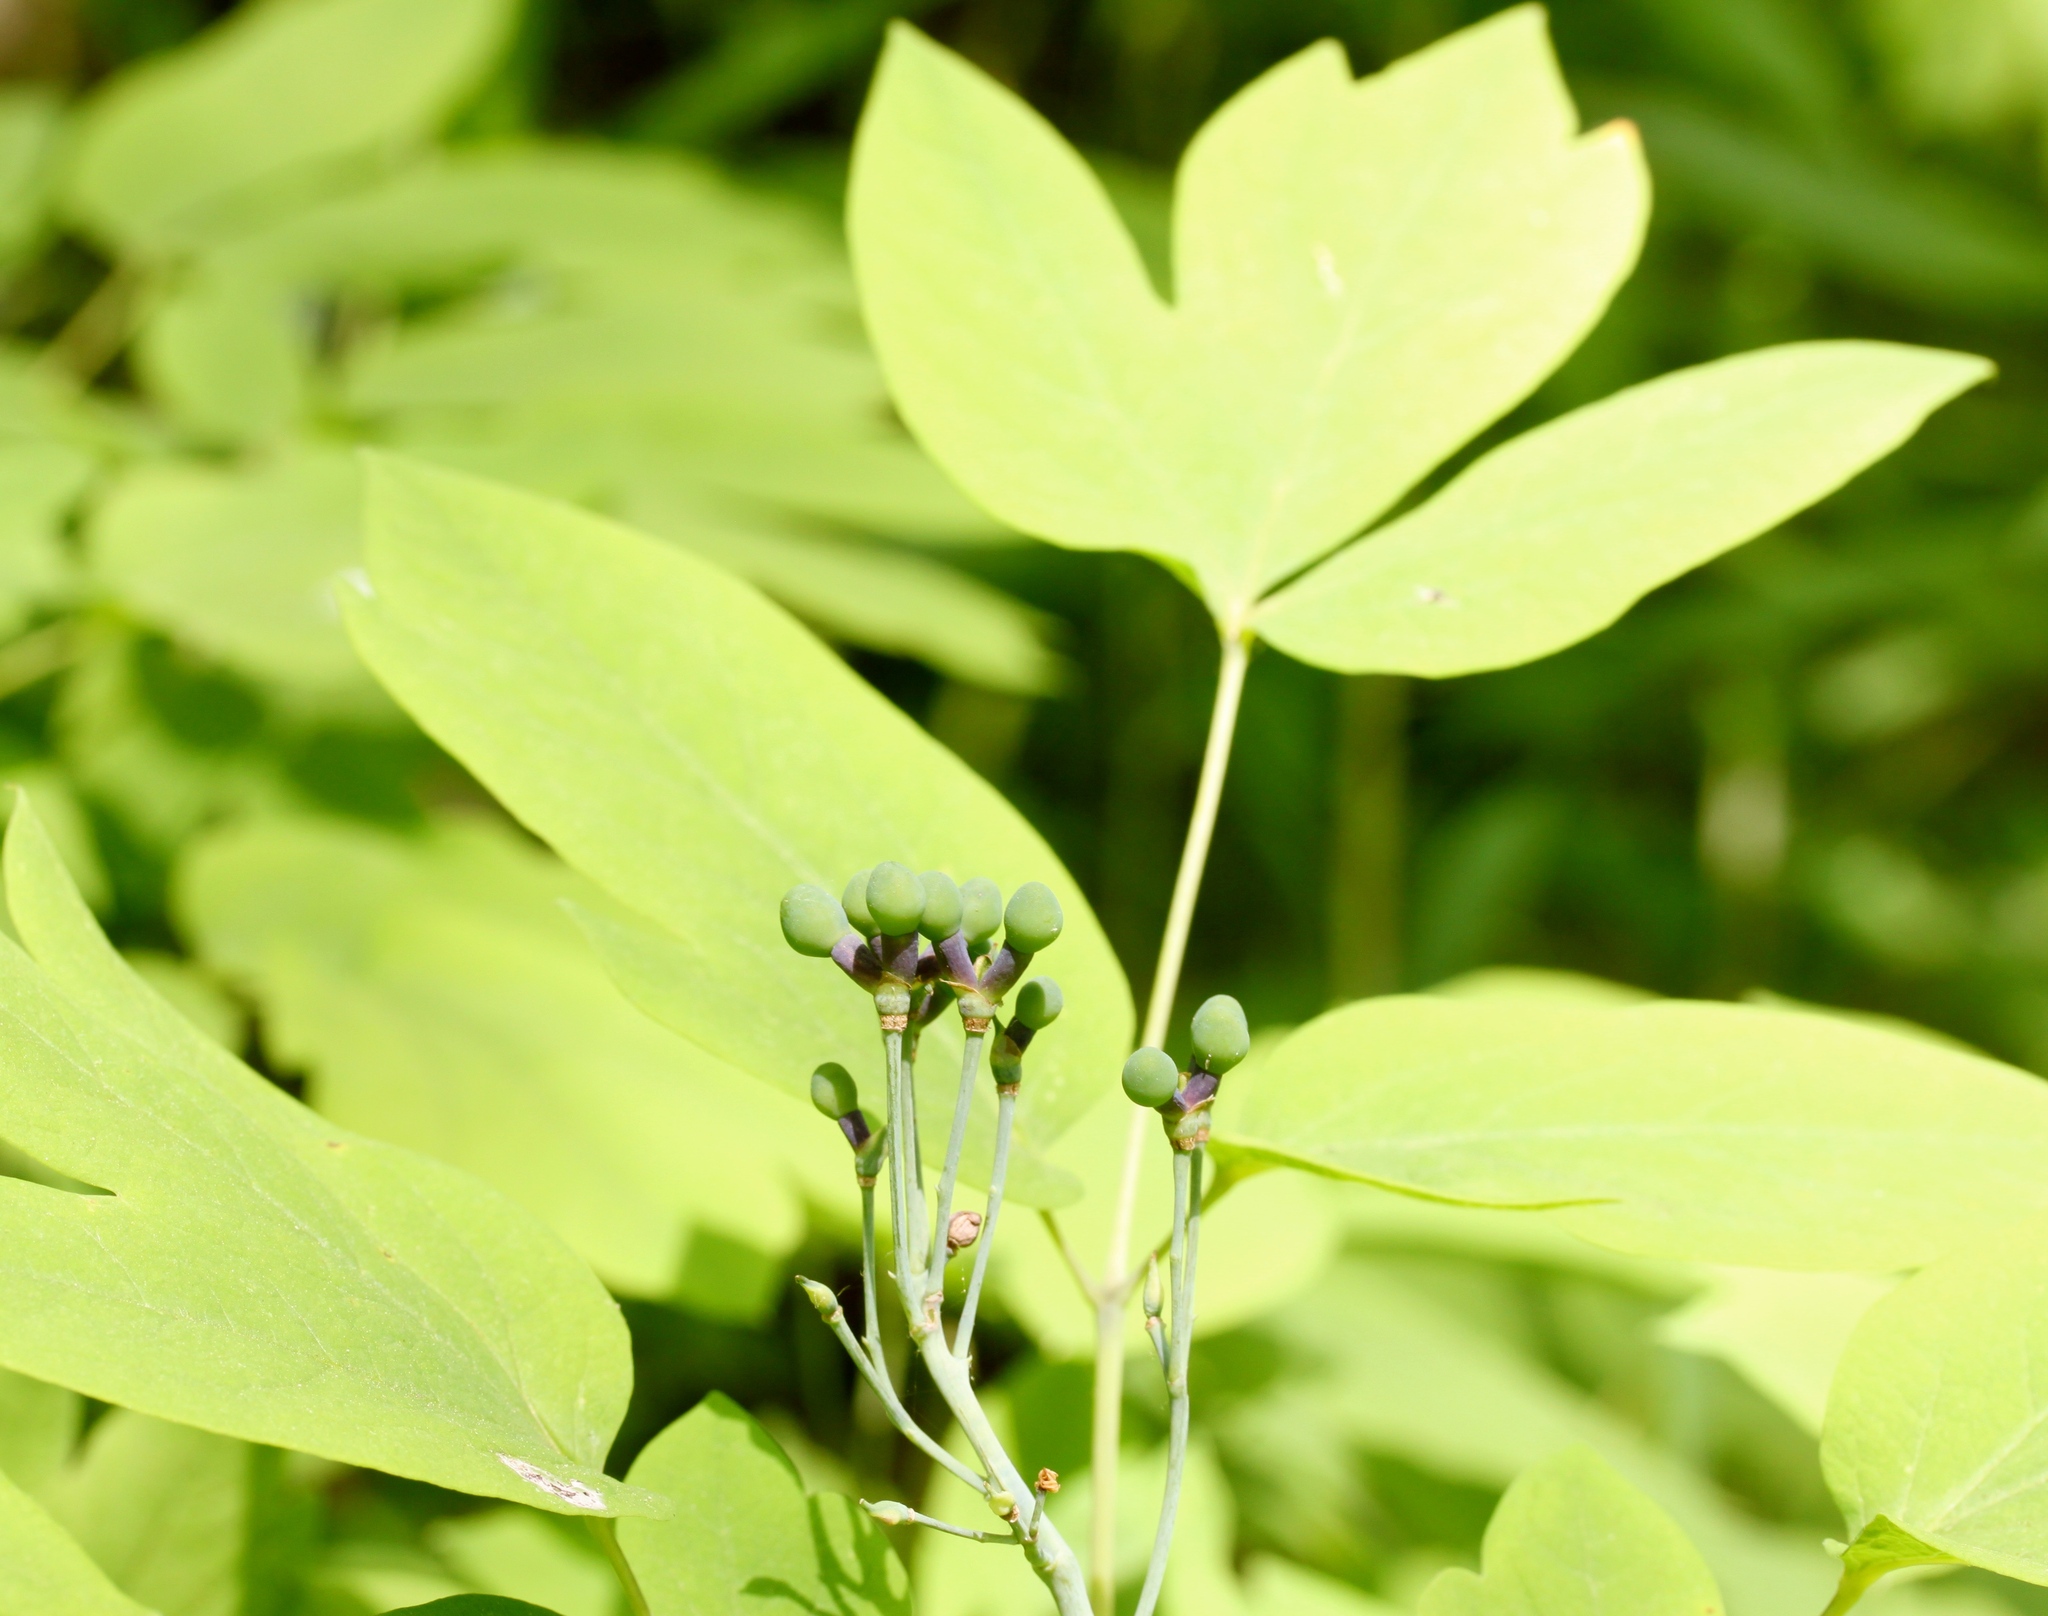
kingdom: Plantae
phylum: Tracheophyta
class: Magnoliopsida
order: Ranunculales
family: Berberidaceae
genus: Caulophyllum
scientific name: Caulophyllum thalictroides
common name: Blue cohosh
